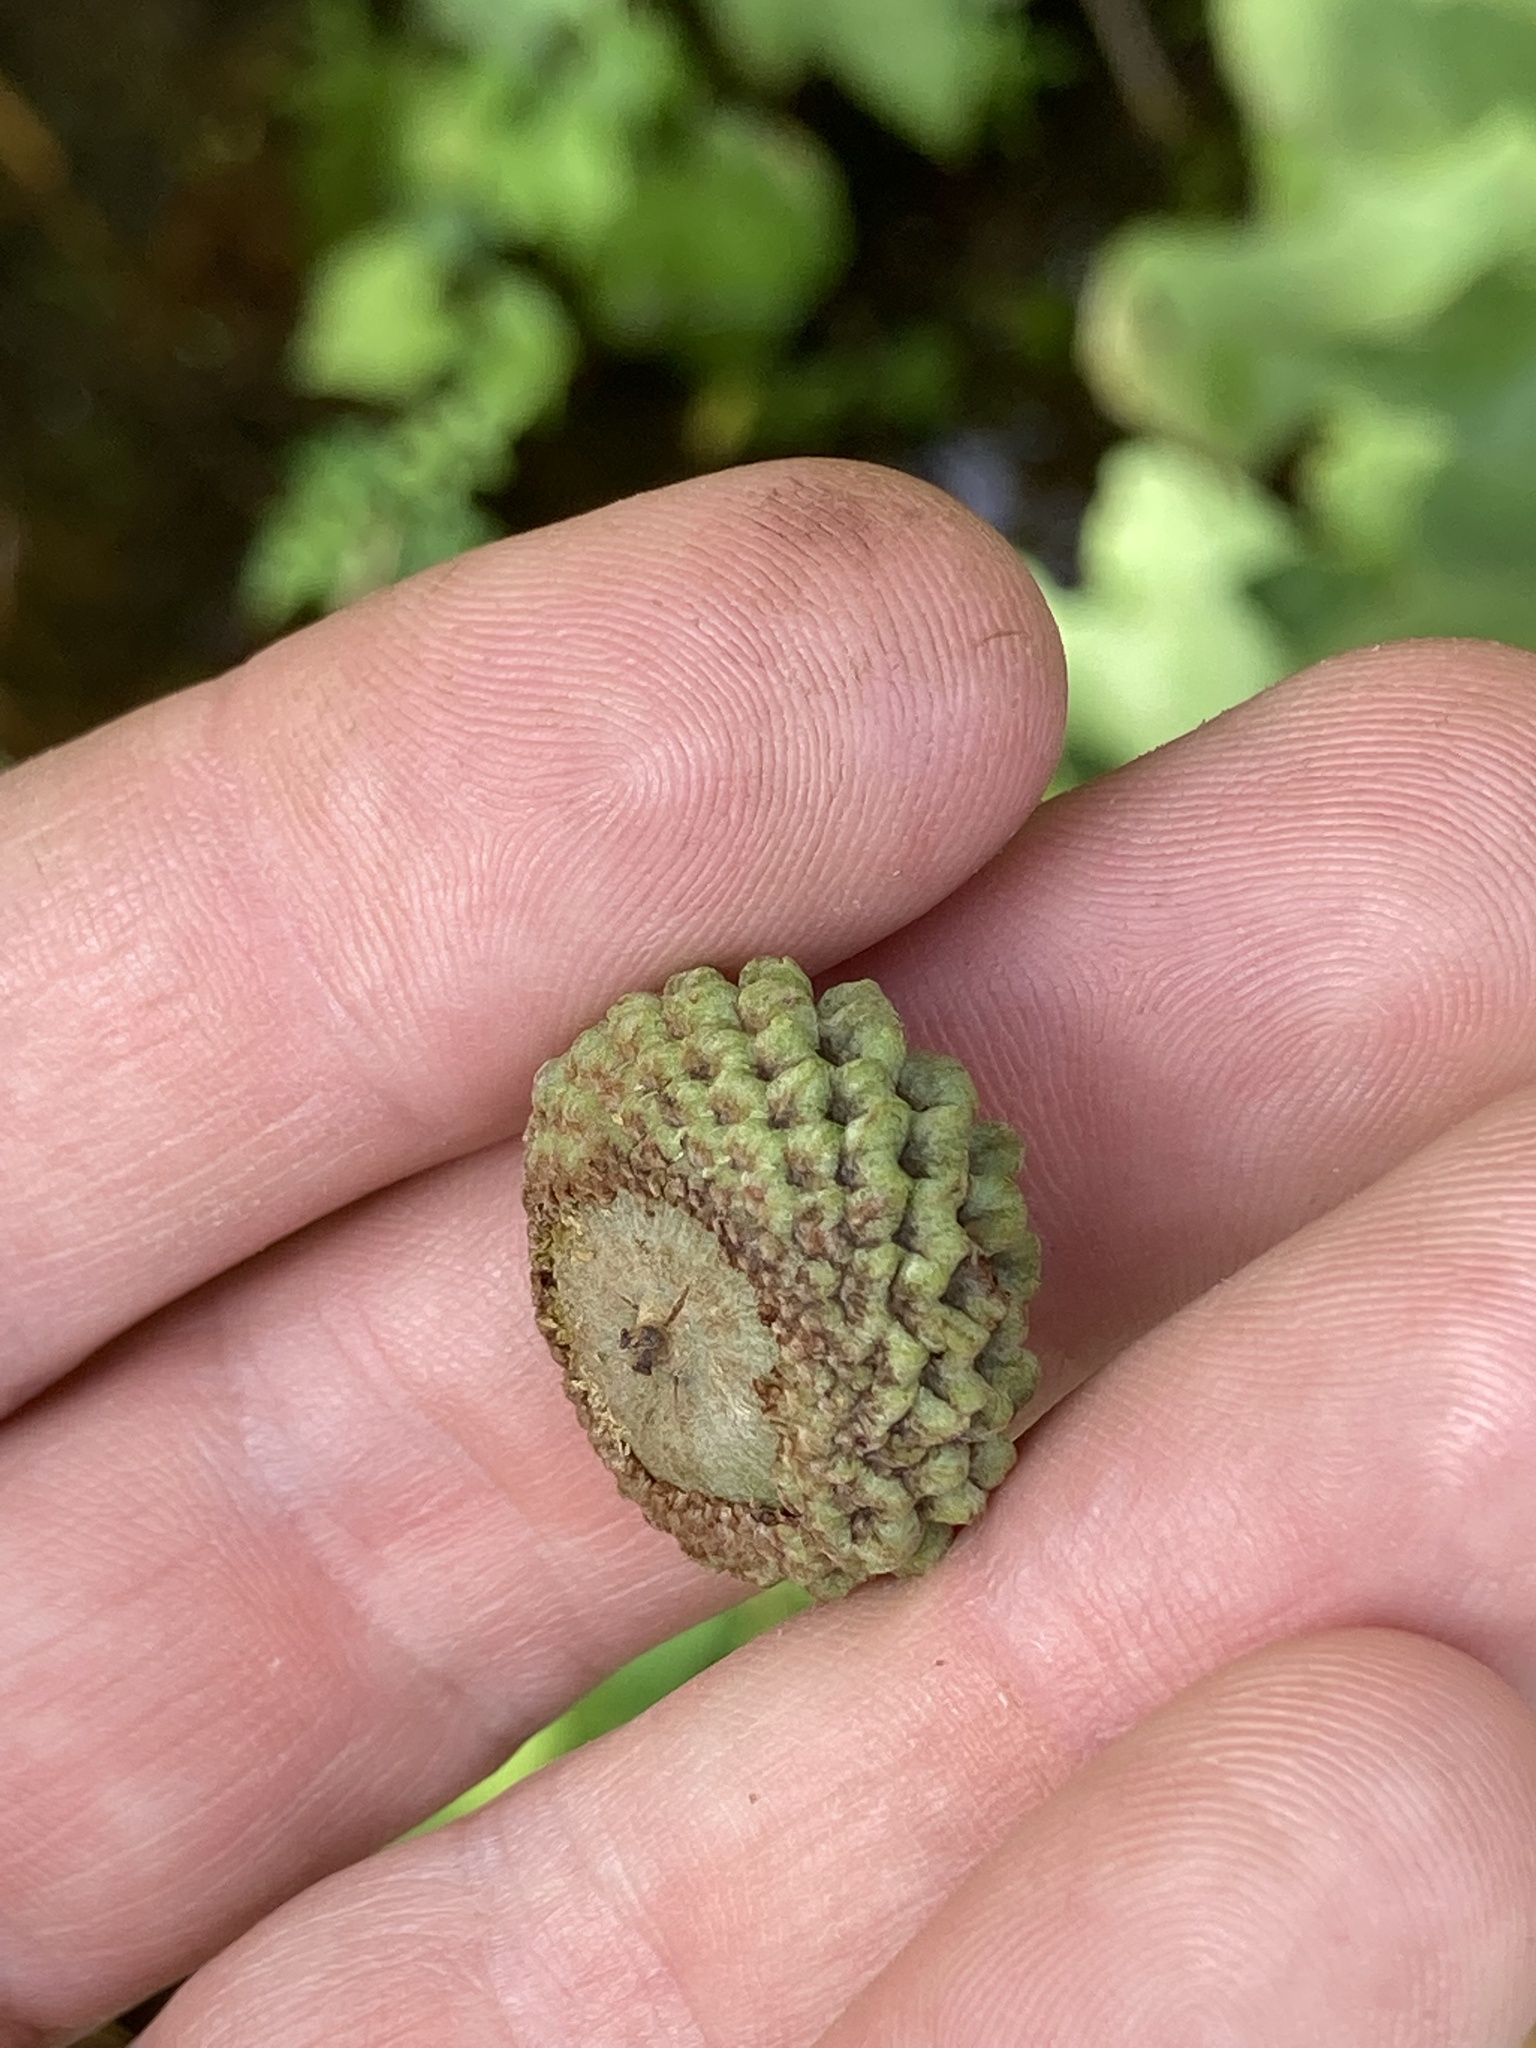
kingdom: Plantae
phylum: Tracheophyta
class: Magnoliopsida
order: Fagales
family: Fagaceae
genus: Quercus
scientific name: Quercus lyrata
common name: Overcup oak
